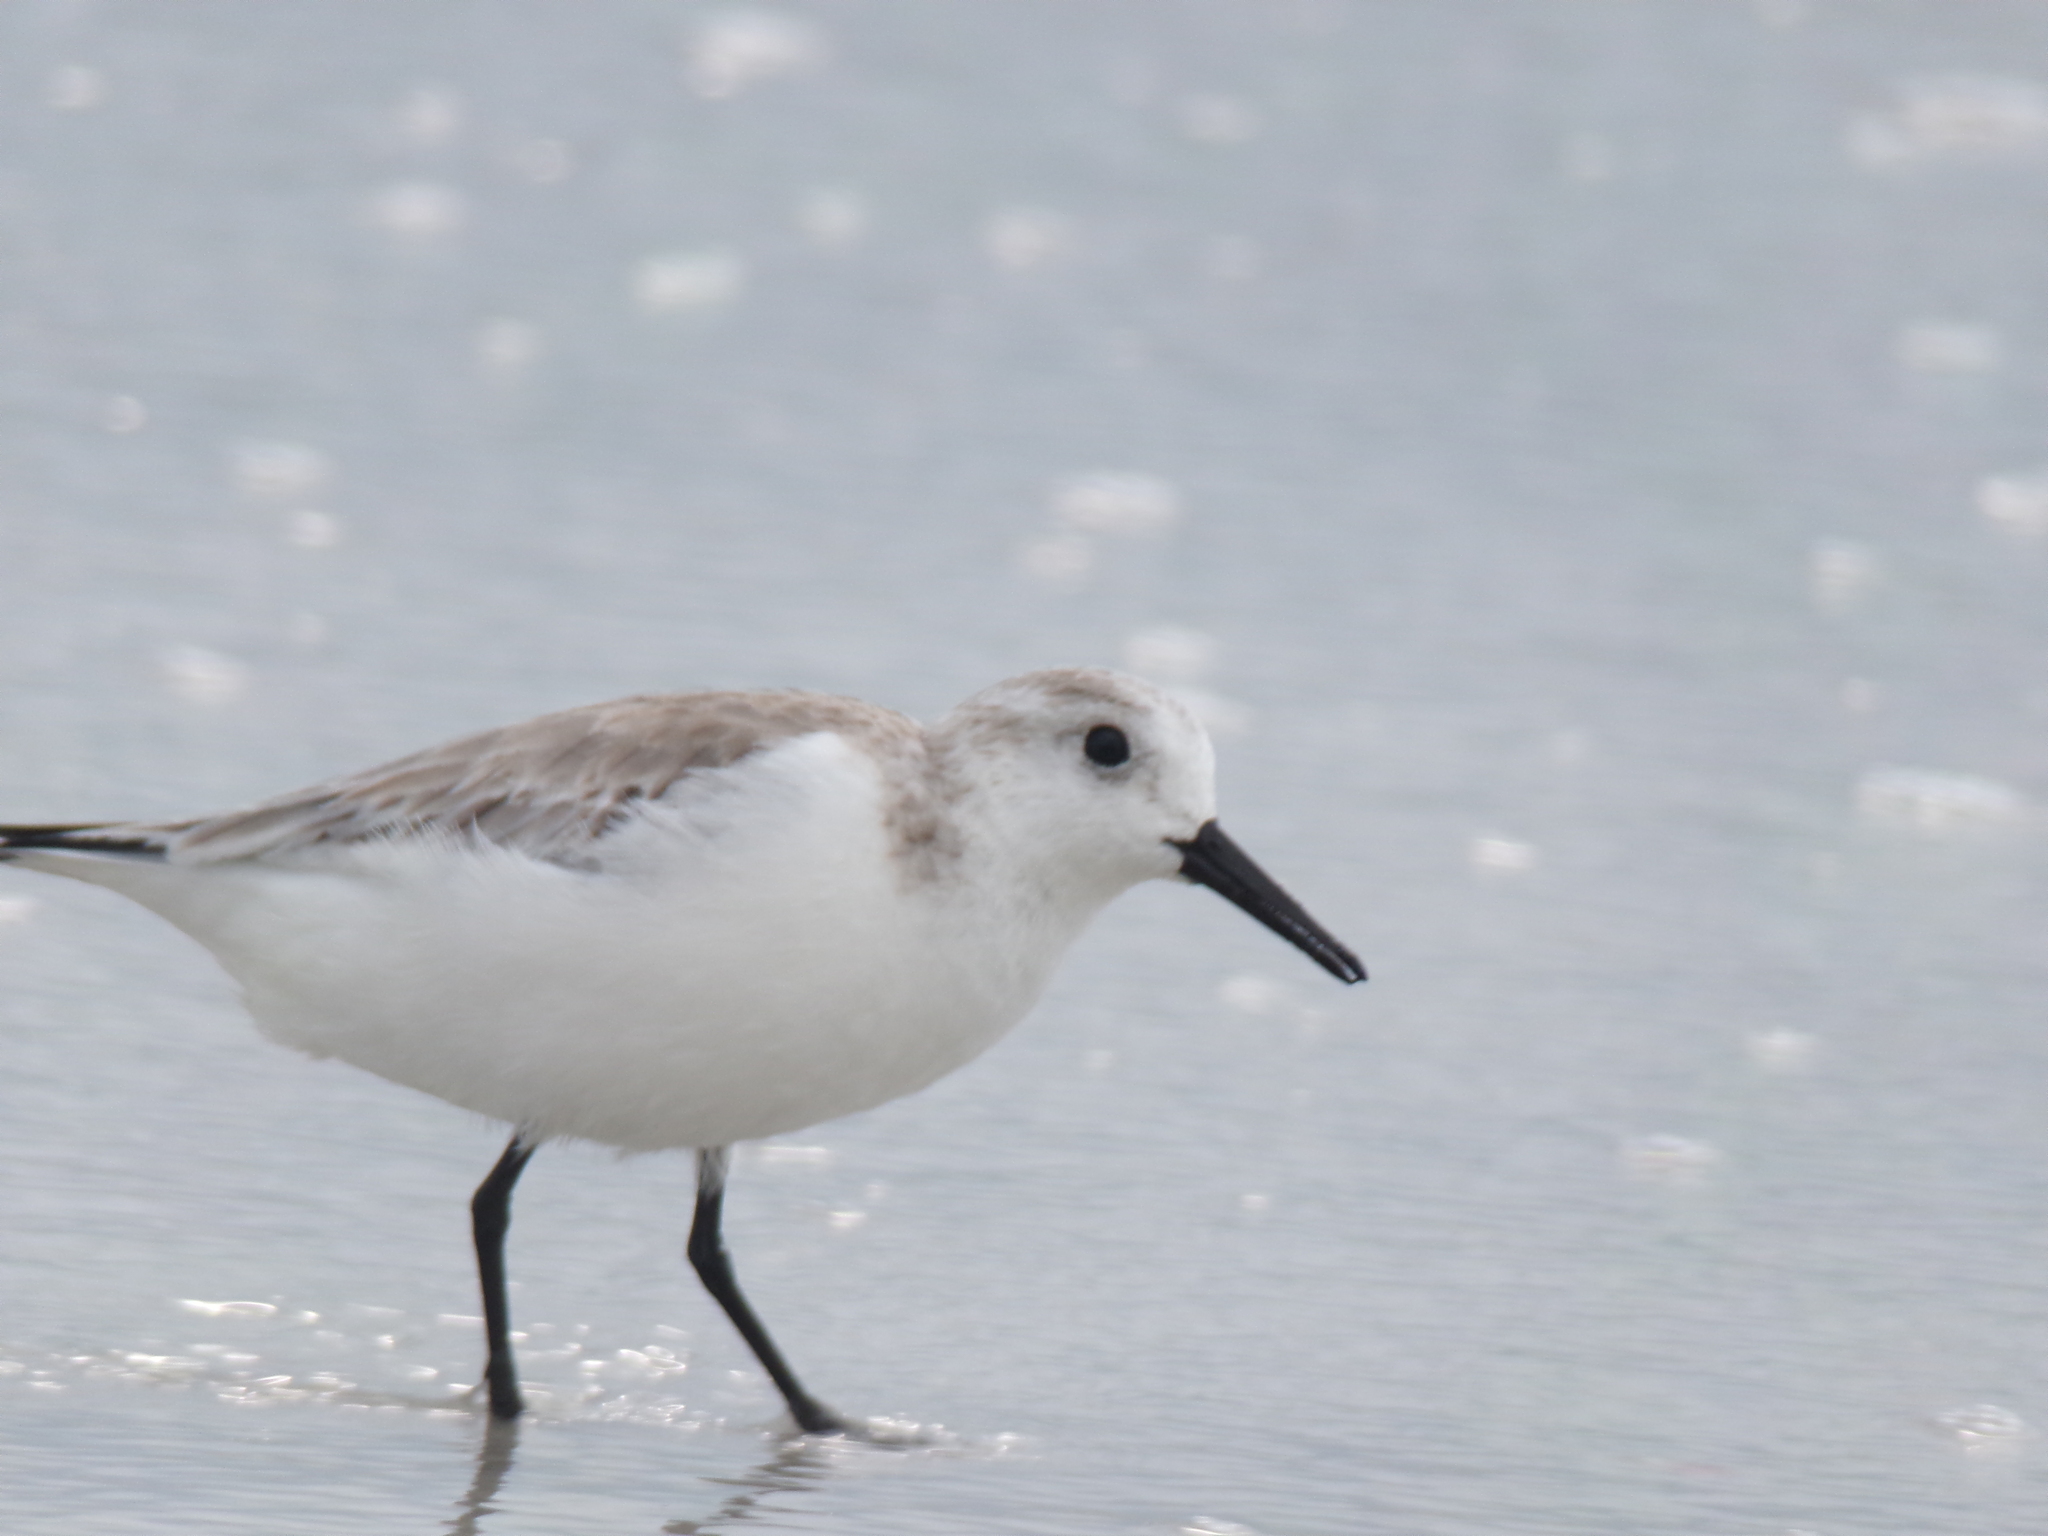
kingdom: Animalia
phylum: Chordata
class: Aves
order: Charadriiformes
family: Scolopacidae
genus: Calidris
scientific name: Calidris alba
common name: Sanderling
